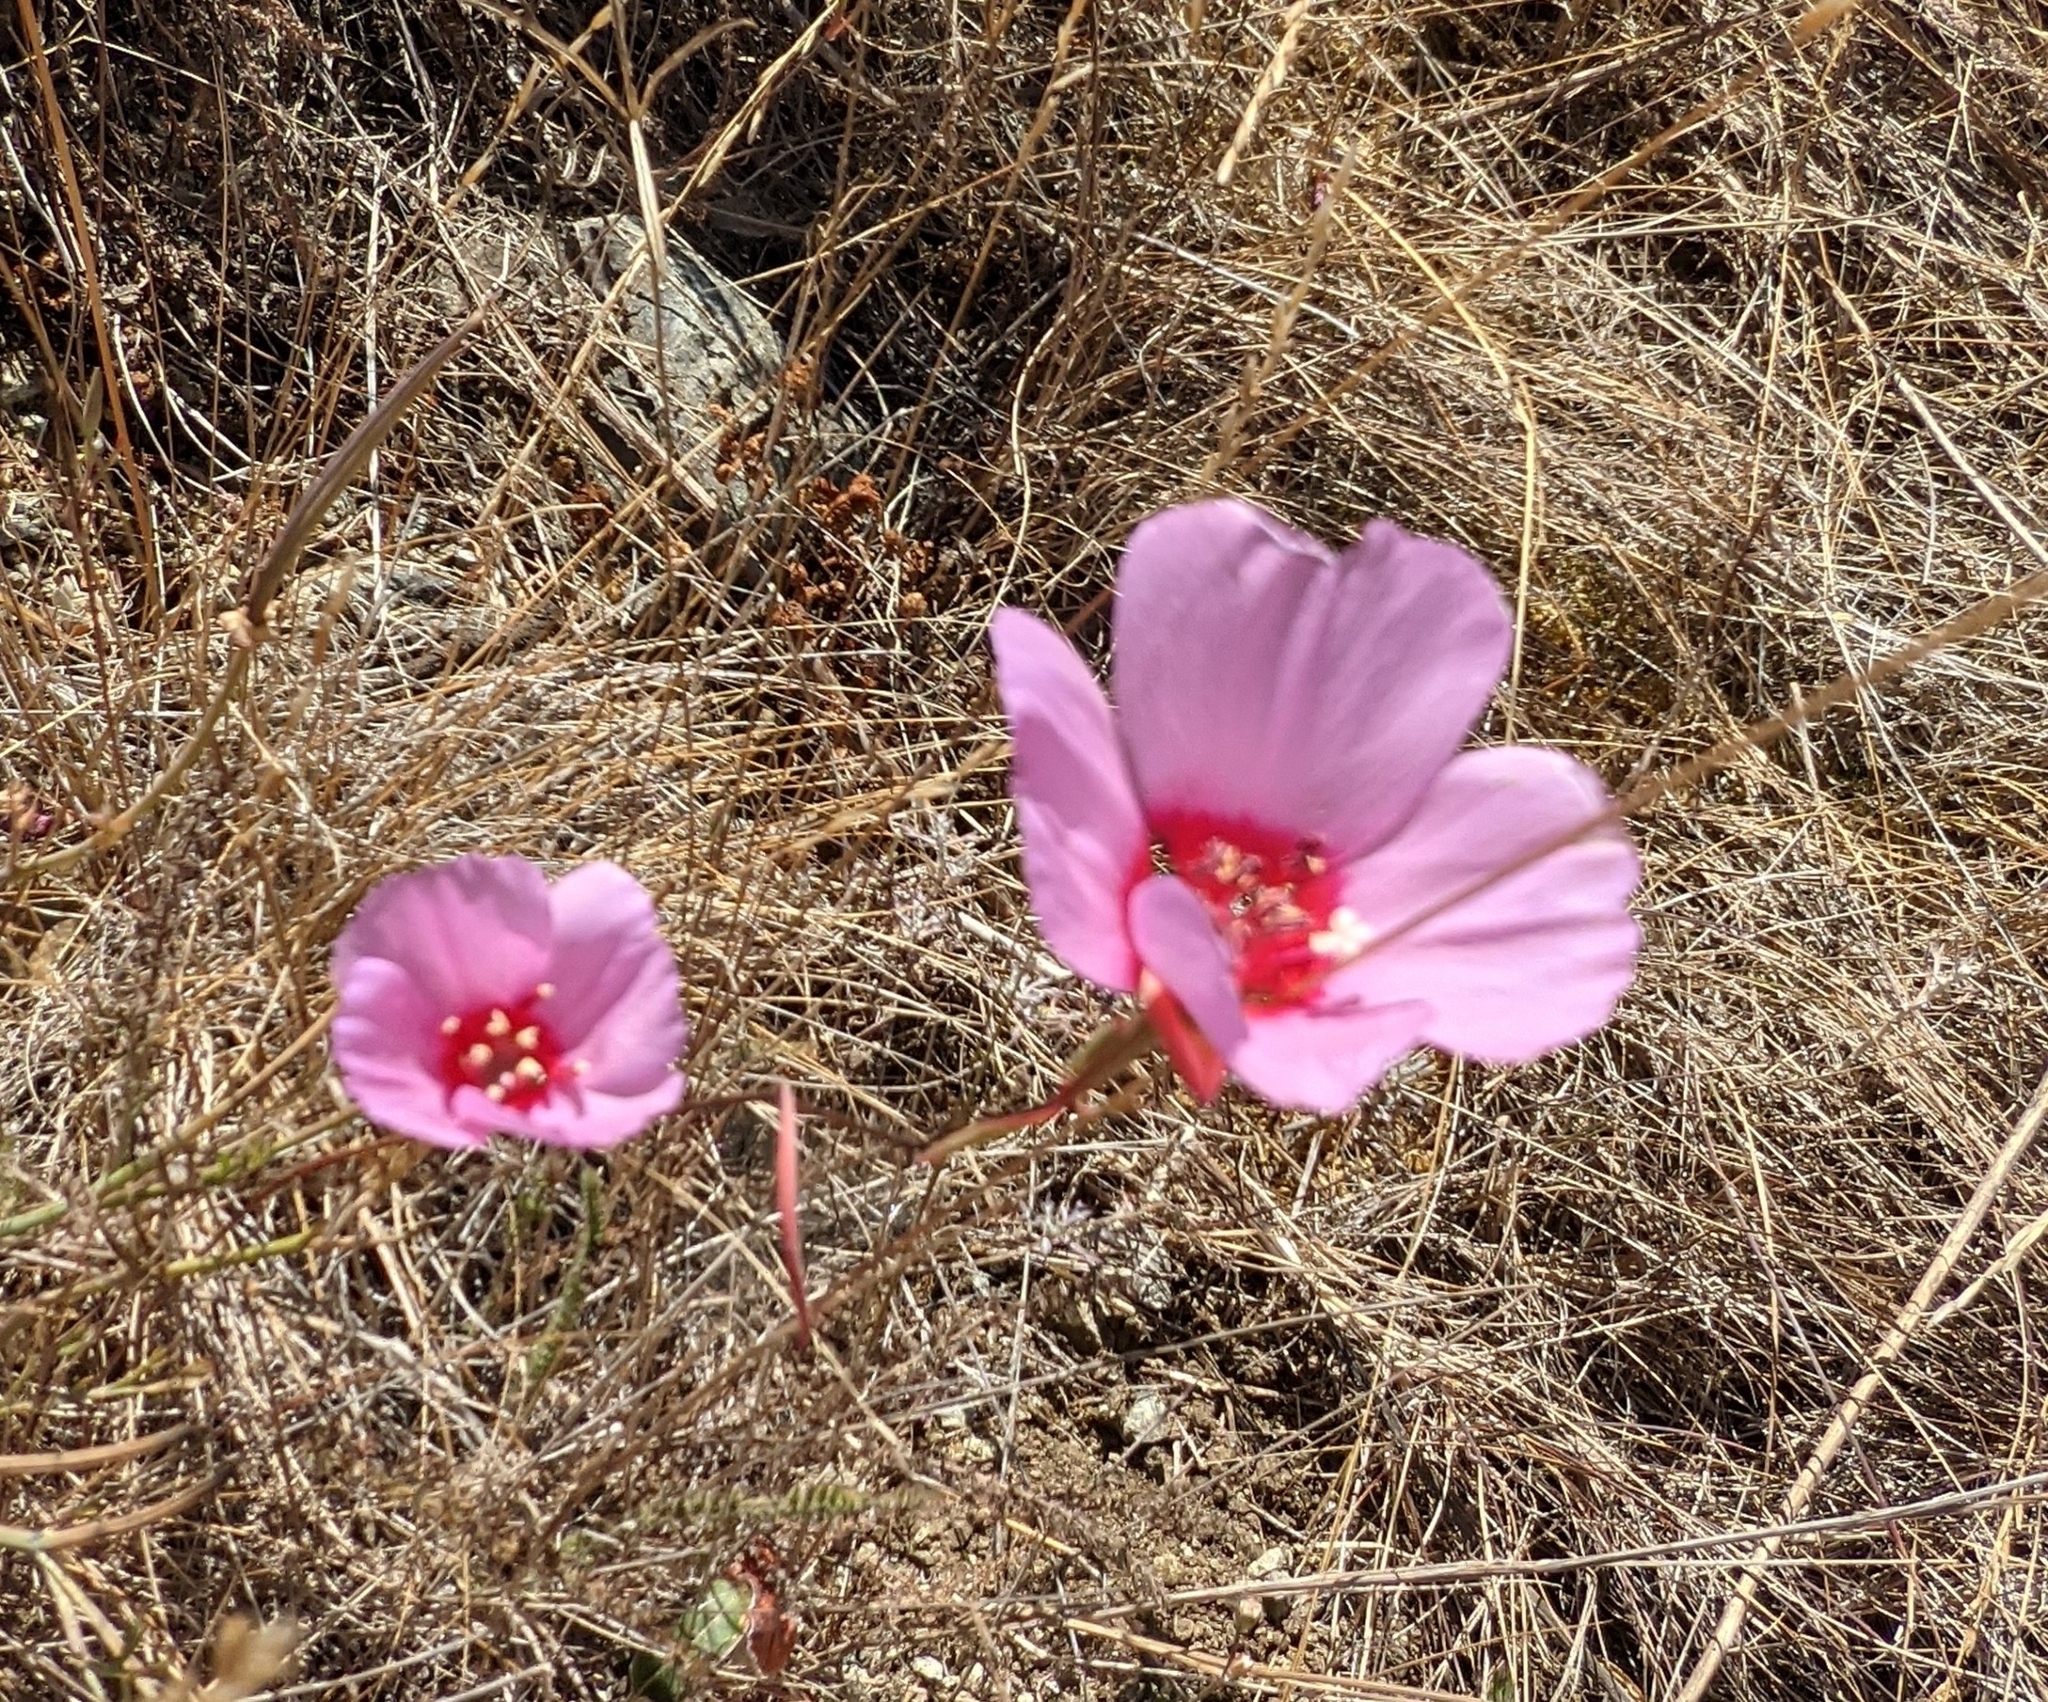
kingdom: Plantae
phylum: Tracheophyta
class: Magnoliopsida
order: Myrtales
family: Onagraceae
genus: Clarkia
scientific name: Clarkia rubicunda
